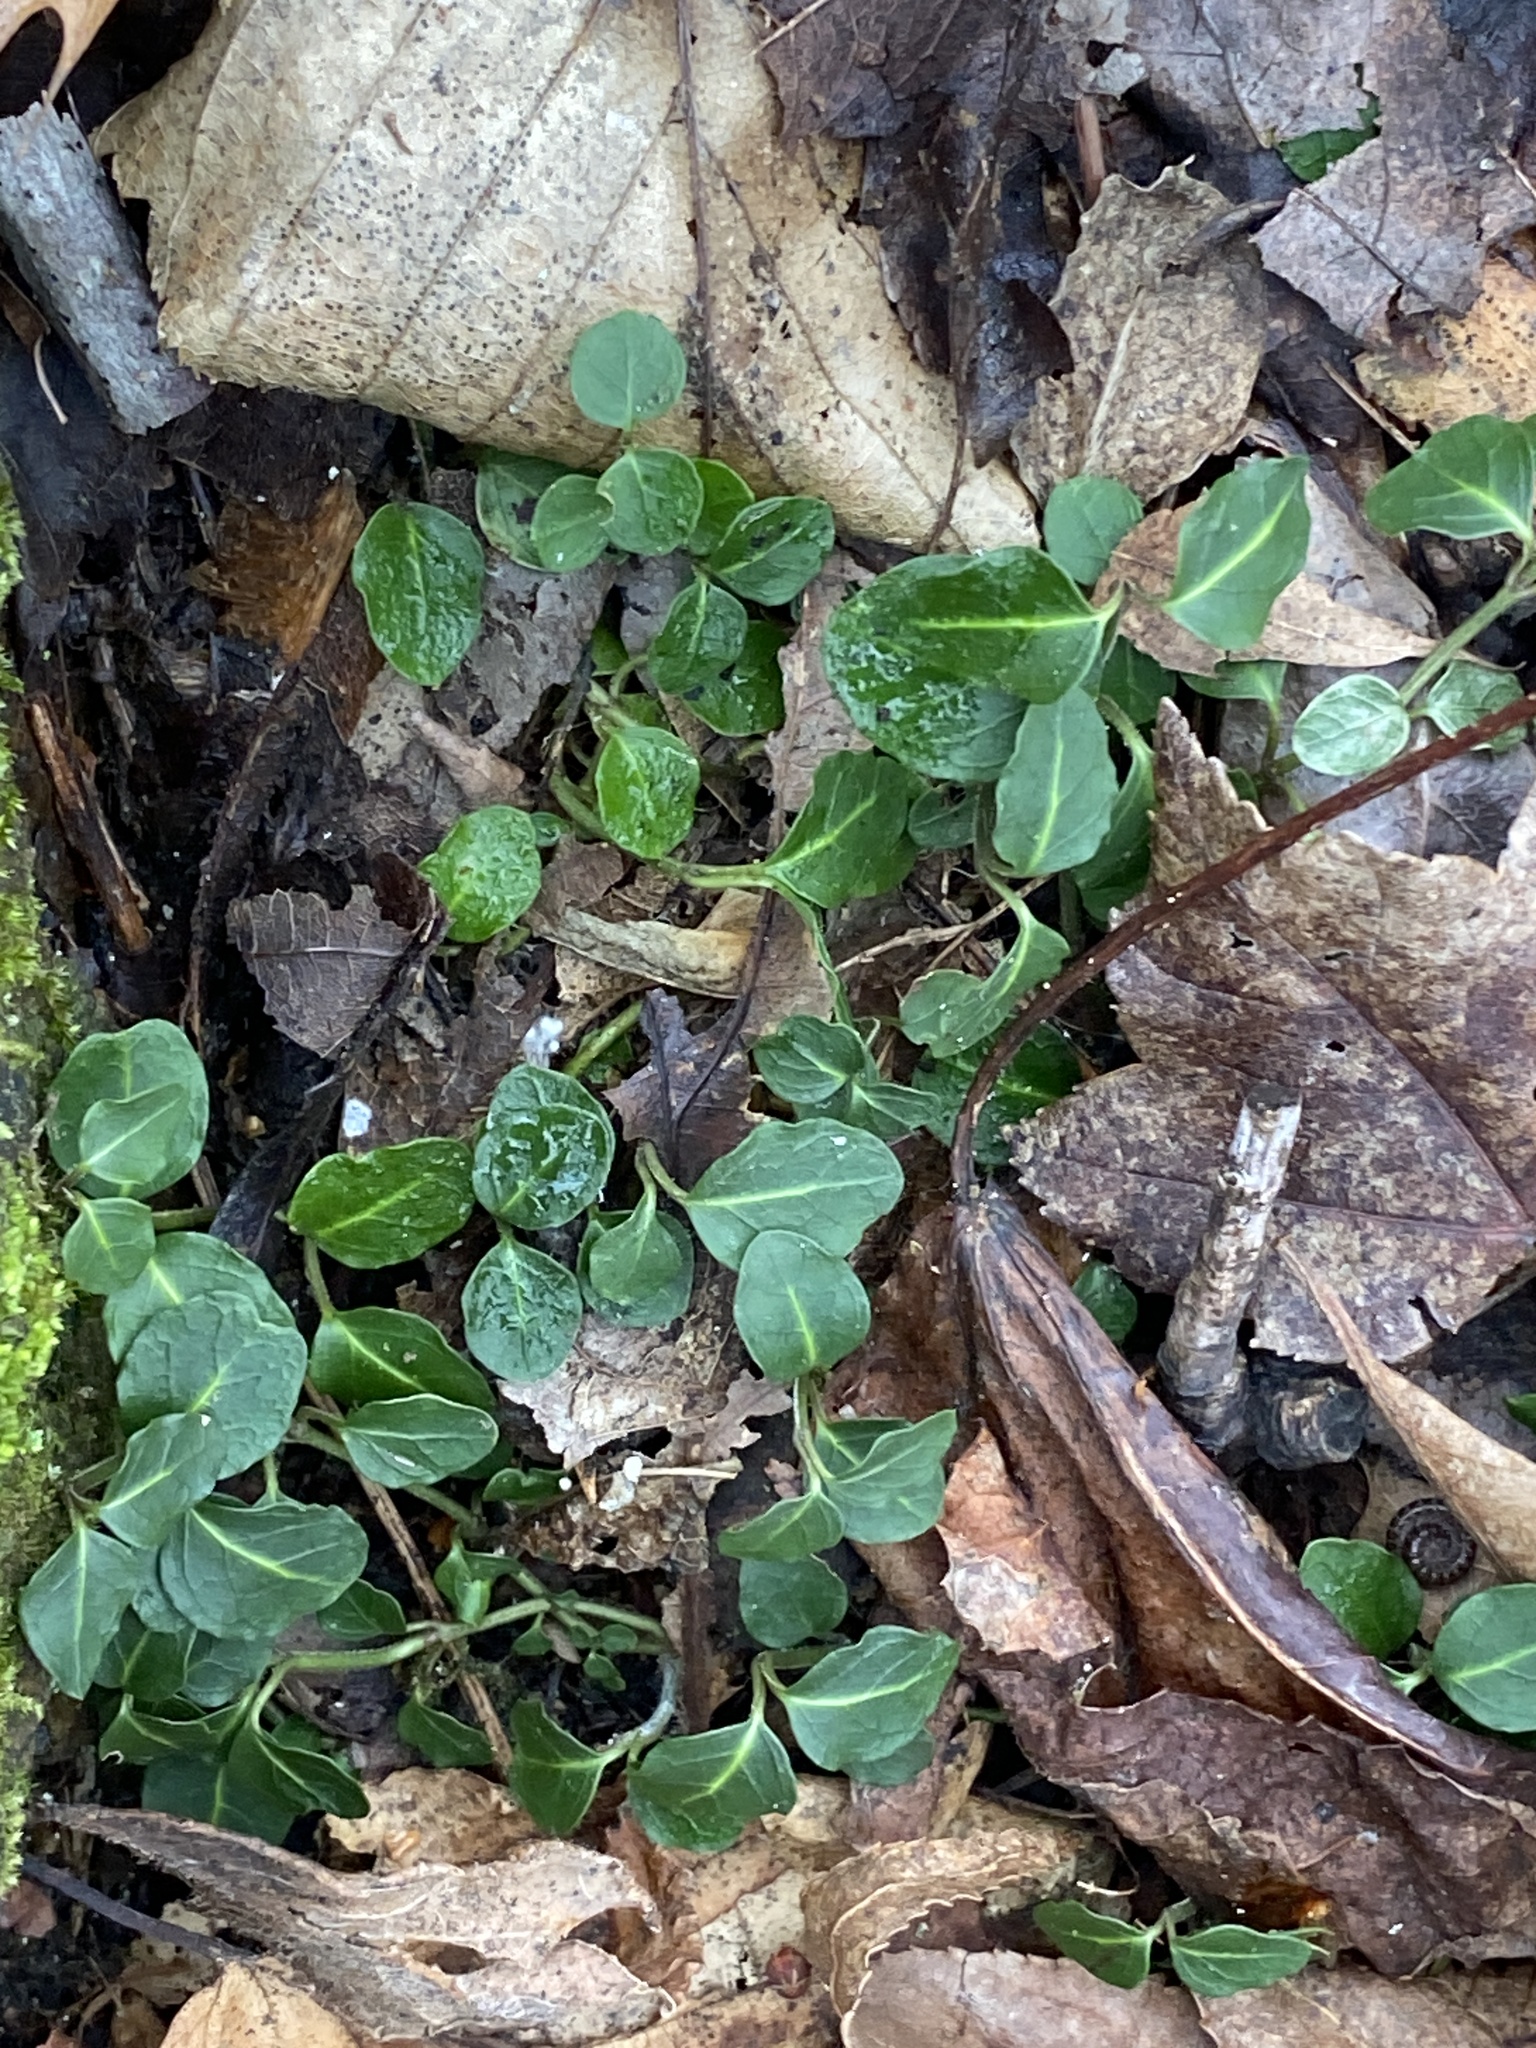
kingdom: Plantae
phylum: Tracheophyta
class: Magnoliopsida
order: Gentianales
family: Rubiaceae
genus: Mitchella
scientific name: Mitchella repens
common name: Partridge-berry
